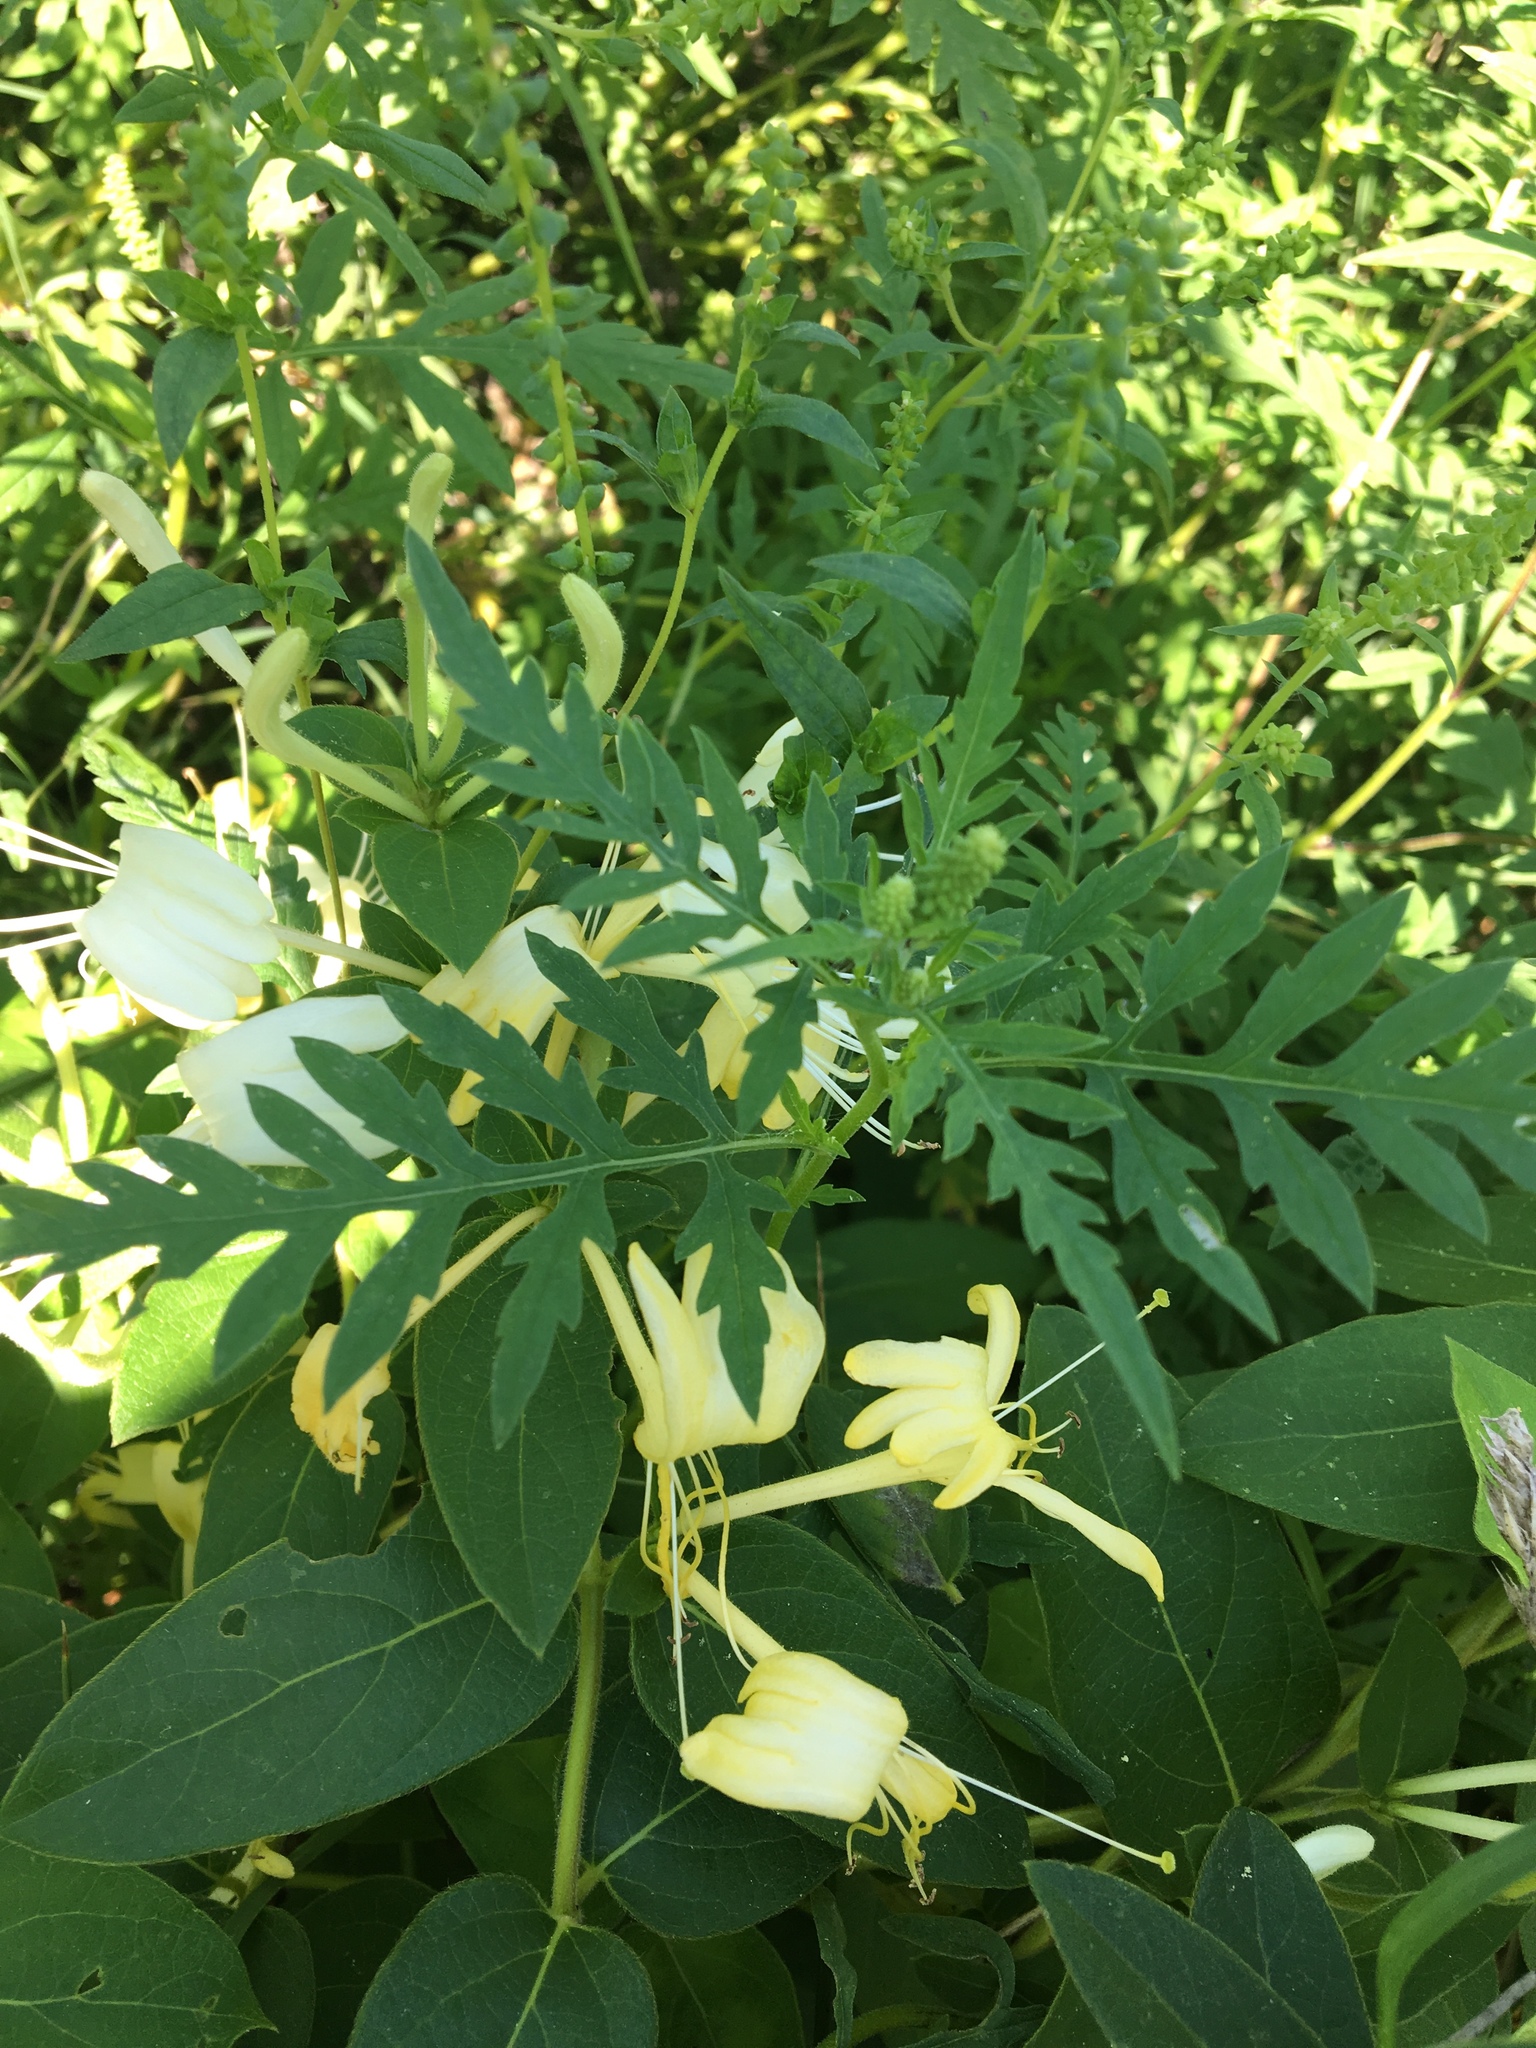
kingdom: Plantae
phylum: Tracheophyta
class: Magnoliopsida
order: Dipsacales
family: Caprifoliaceae
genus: Lonicera
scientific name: Lonicera japonica
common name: Japanese honeysuckle
